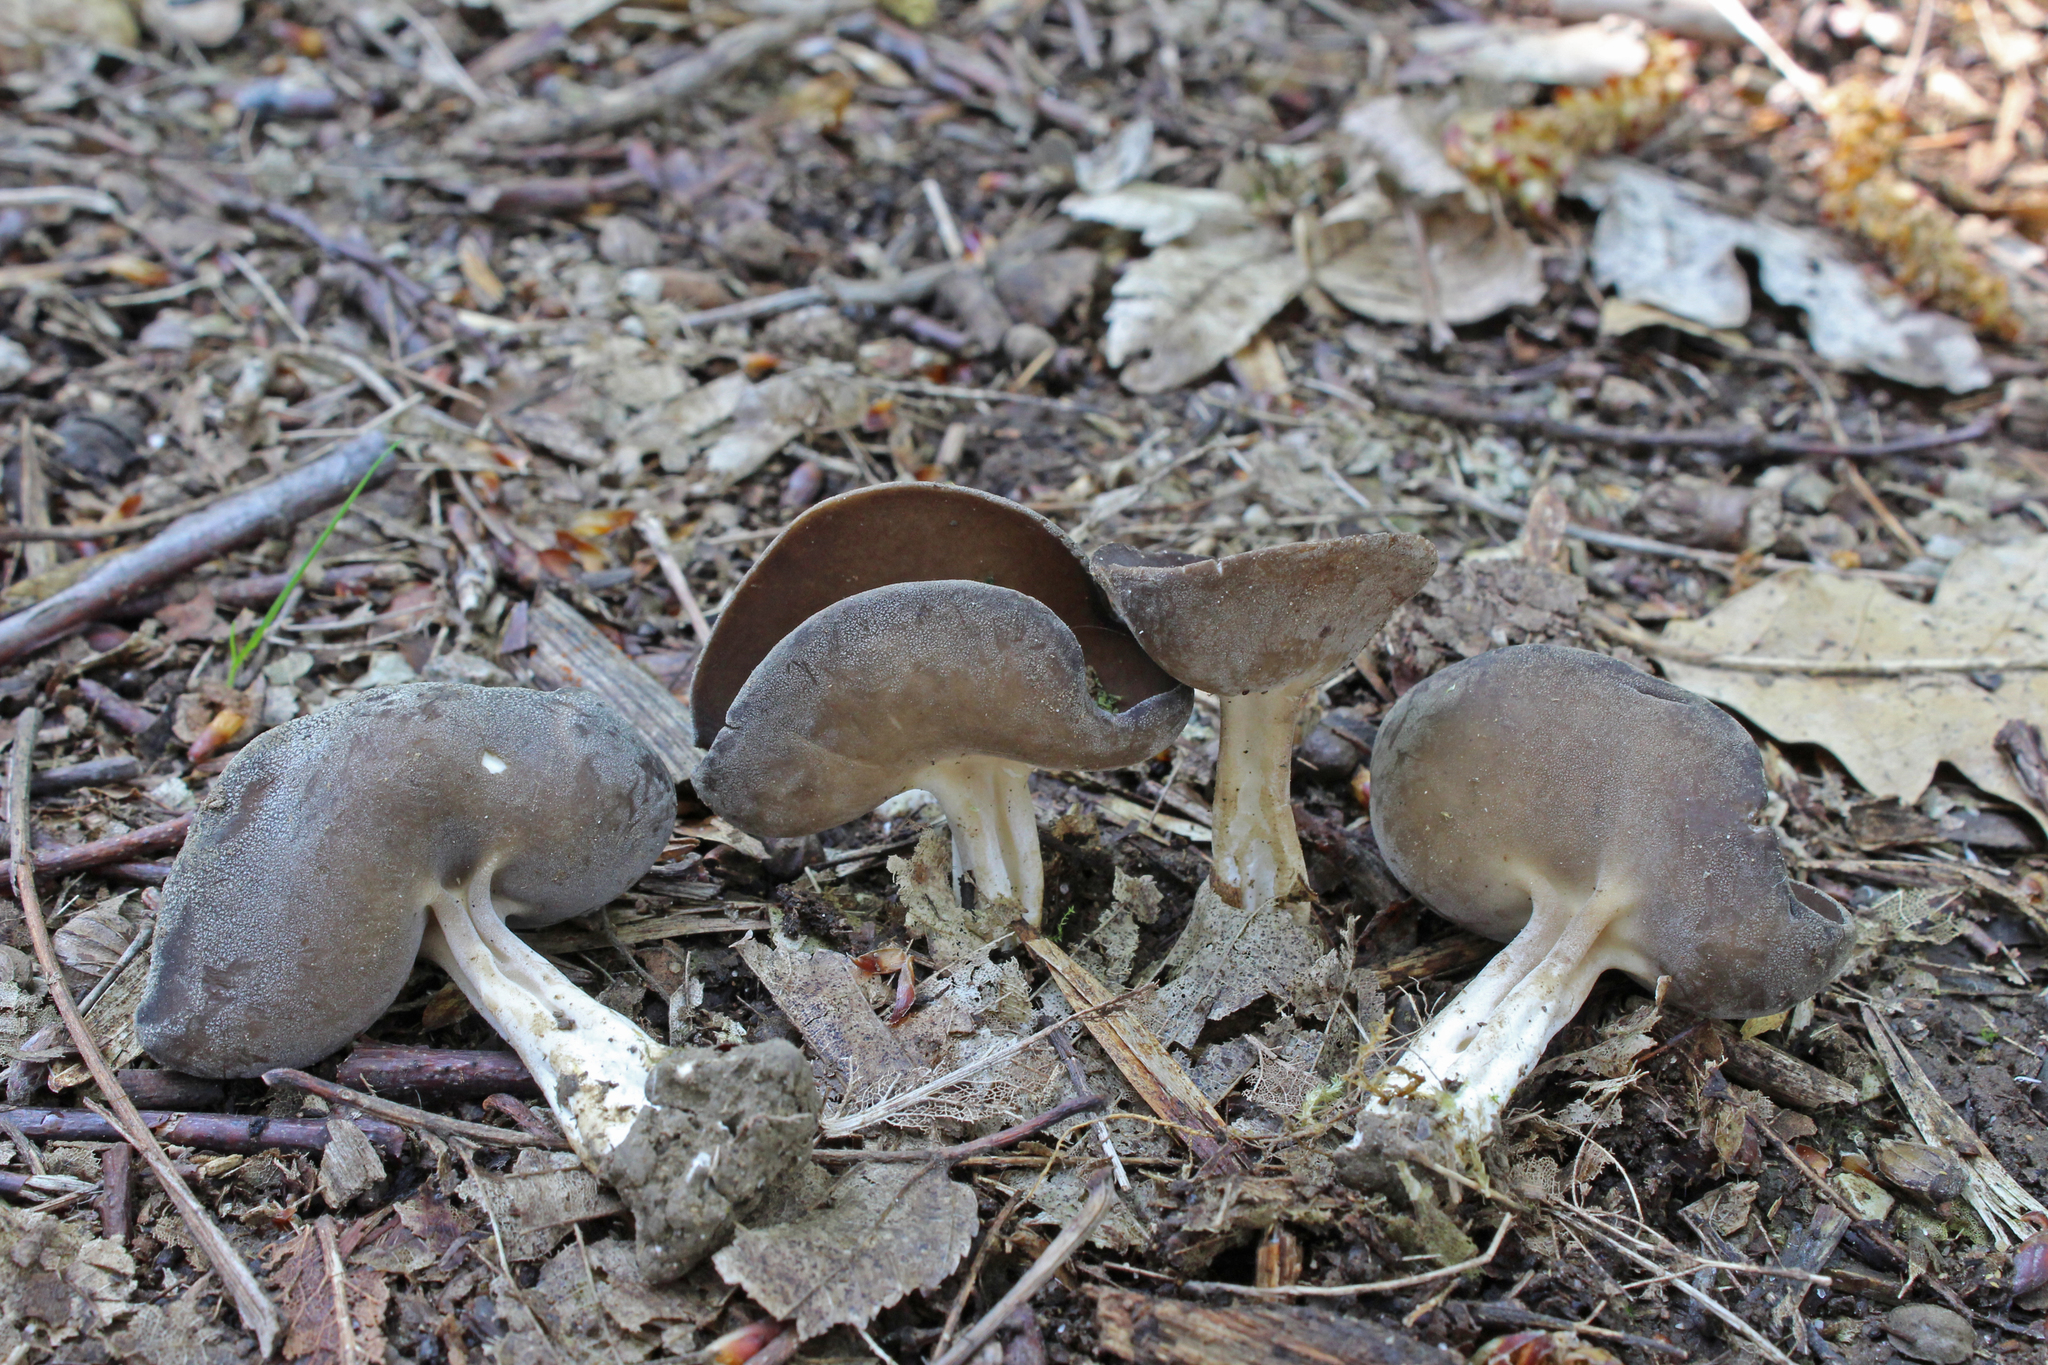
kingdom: Fungi
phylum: Ascomycota
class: Pezizomycetes
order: Pezizales
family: Helvellaceae
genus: Helvella
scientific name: Helvella solitaria
